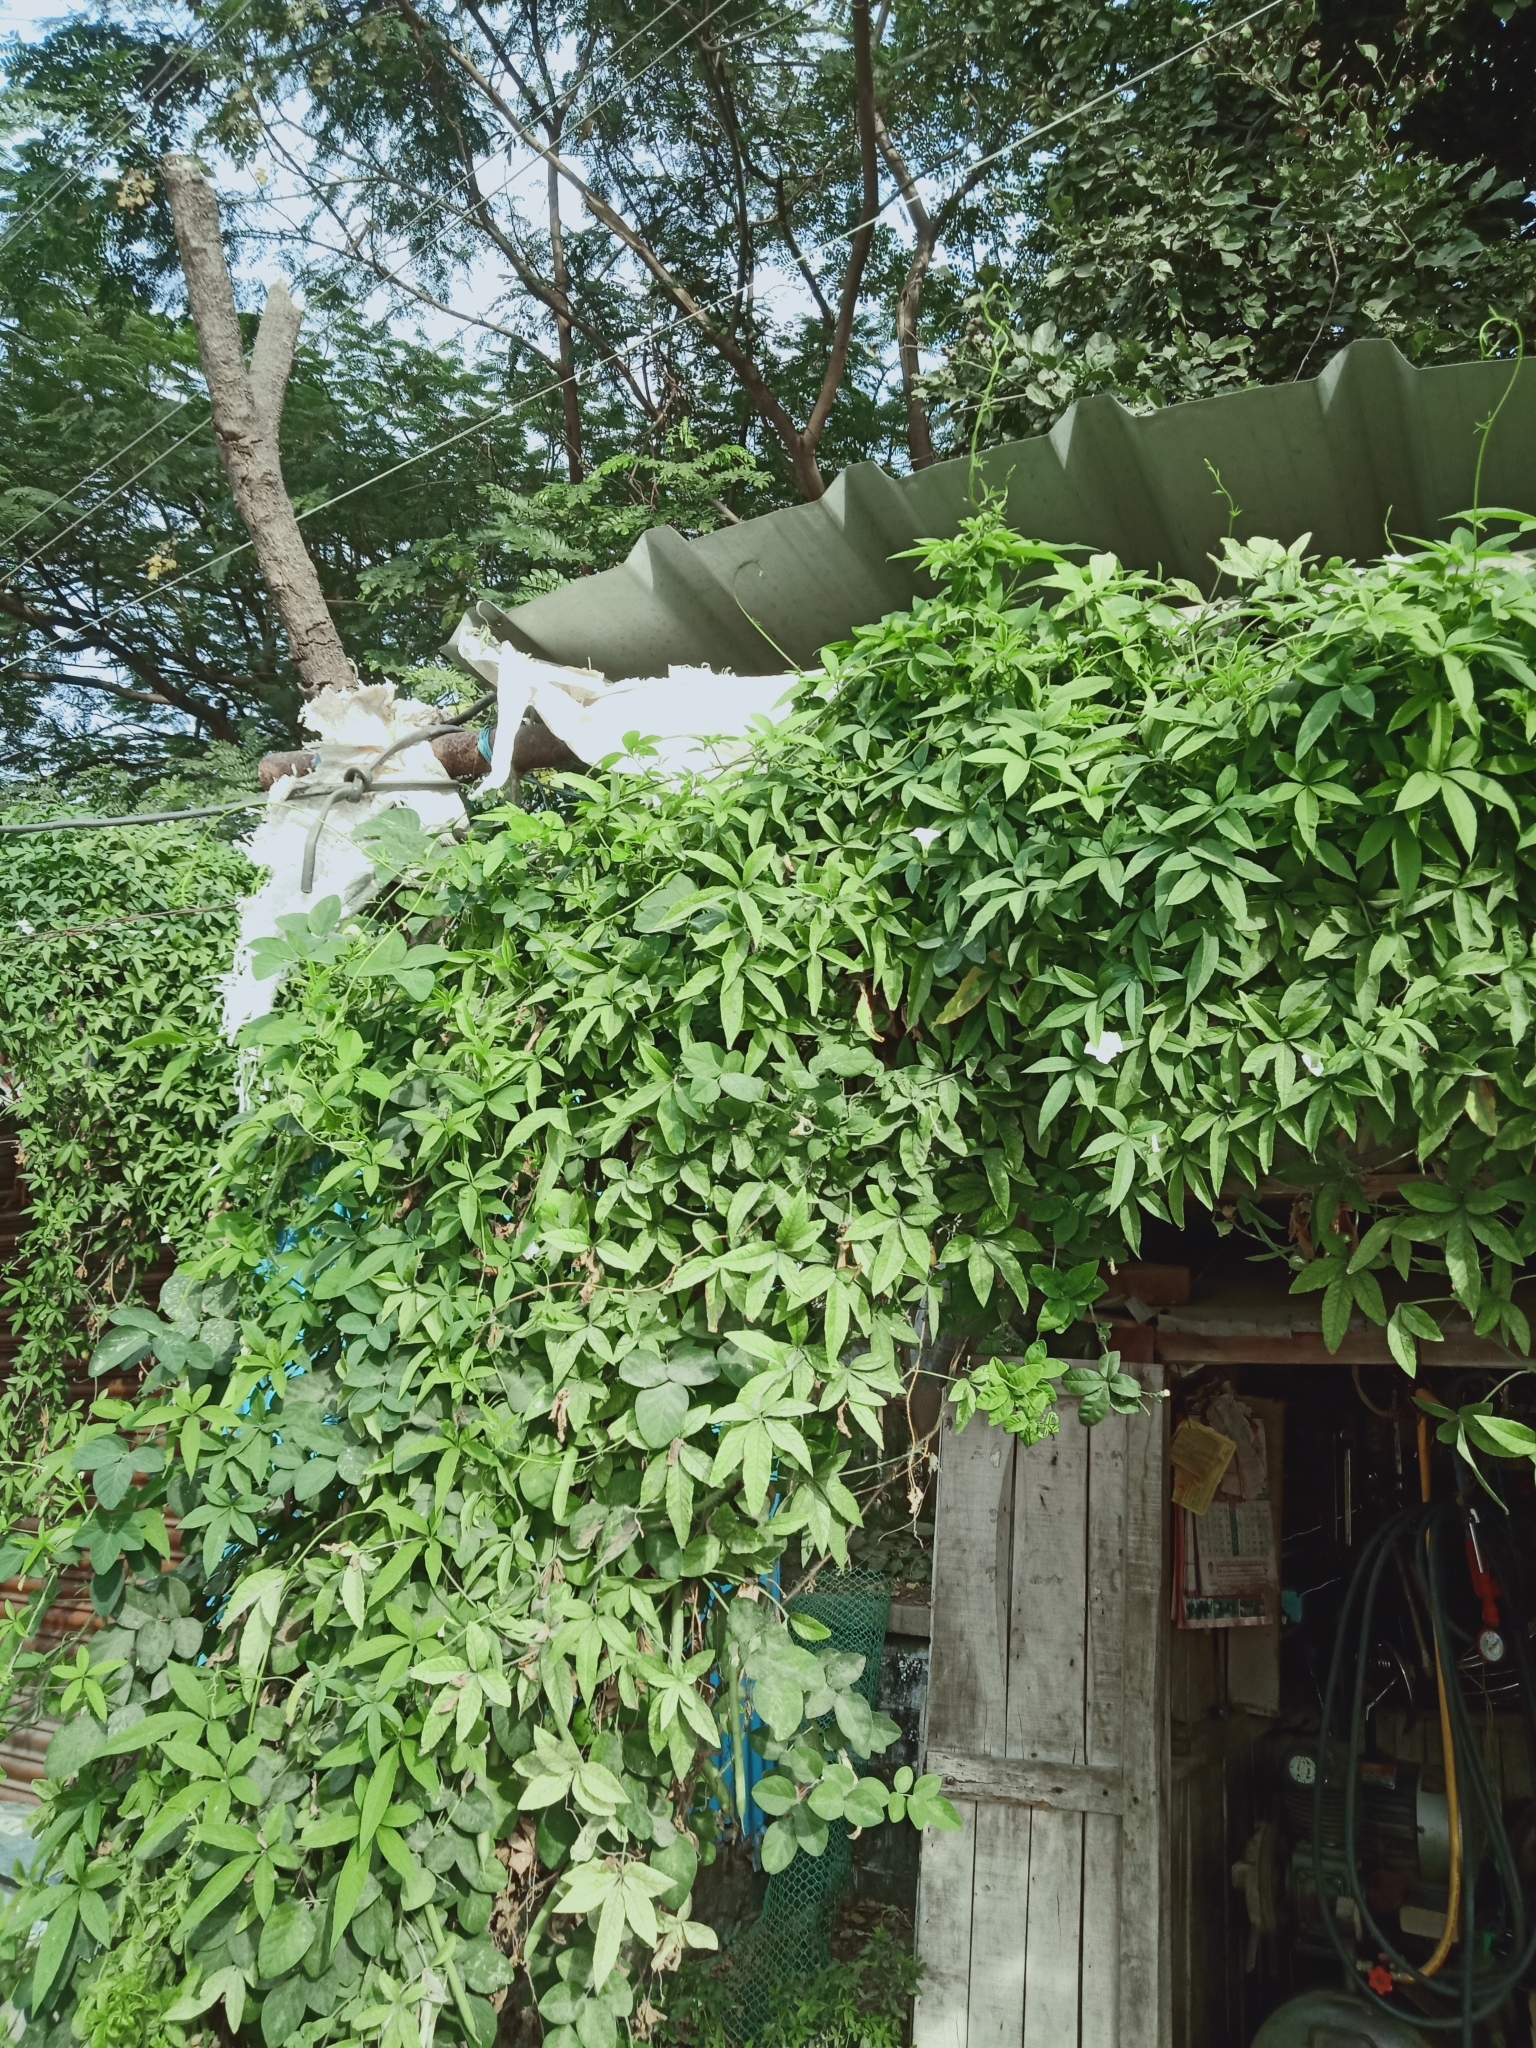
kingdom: Plantae
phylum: Tracheophyta
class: Magnoliopsida
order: Solanales
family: Convolvulaceae
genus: Distimake
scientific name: Distimake quinquefolius
